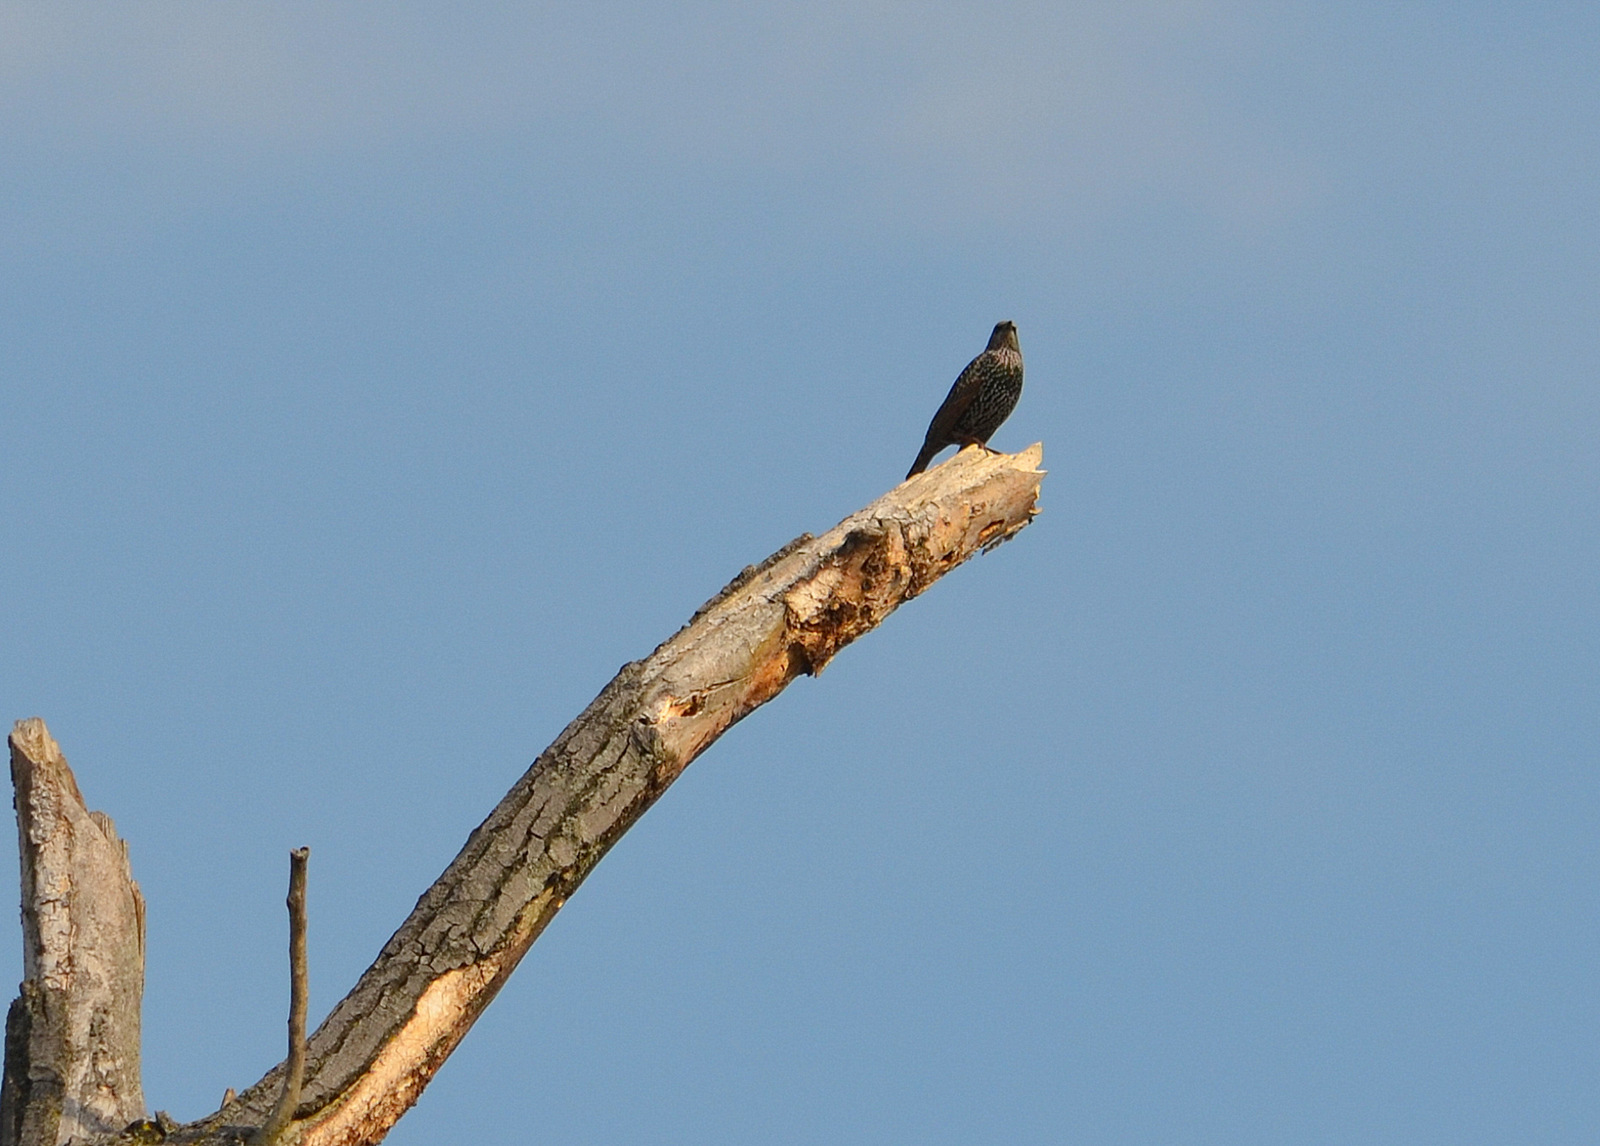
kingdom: Animalia
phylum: Chordata
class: Aves
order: Passeriformes
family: Sturnidae
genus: Sturnus
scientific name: Sturnus vulgaris
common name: Common starling
